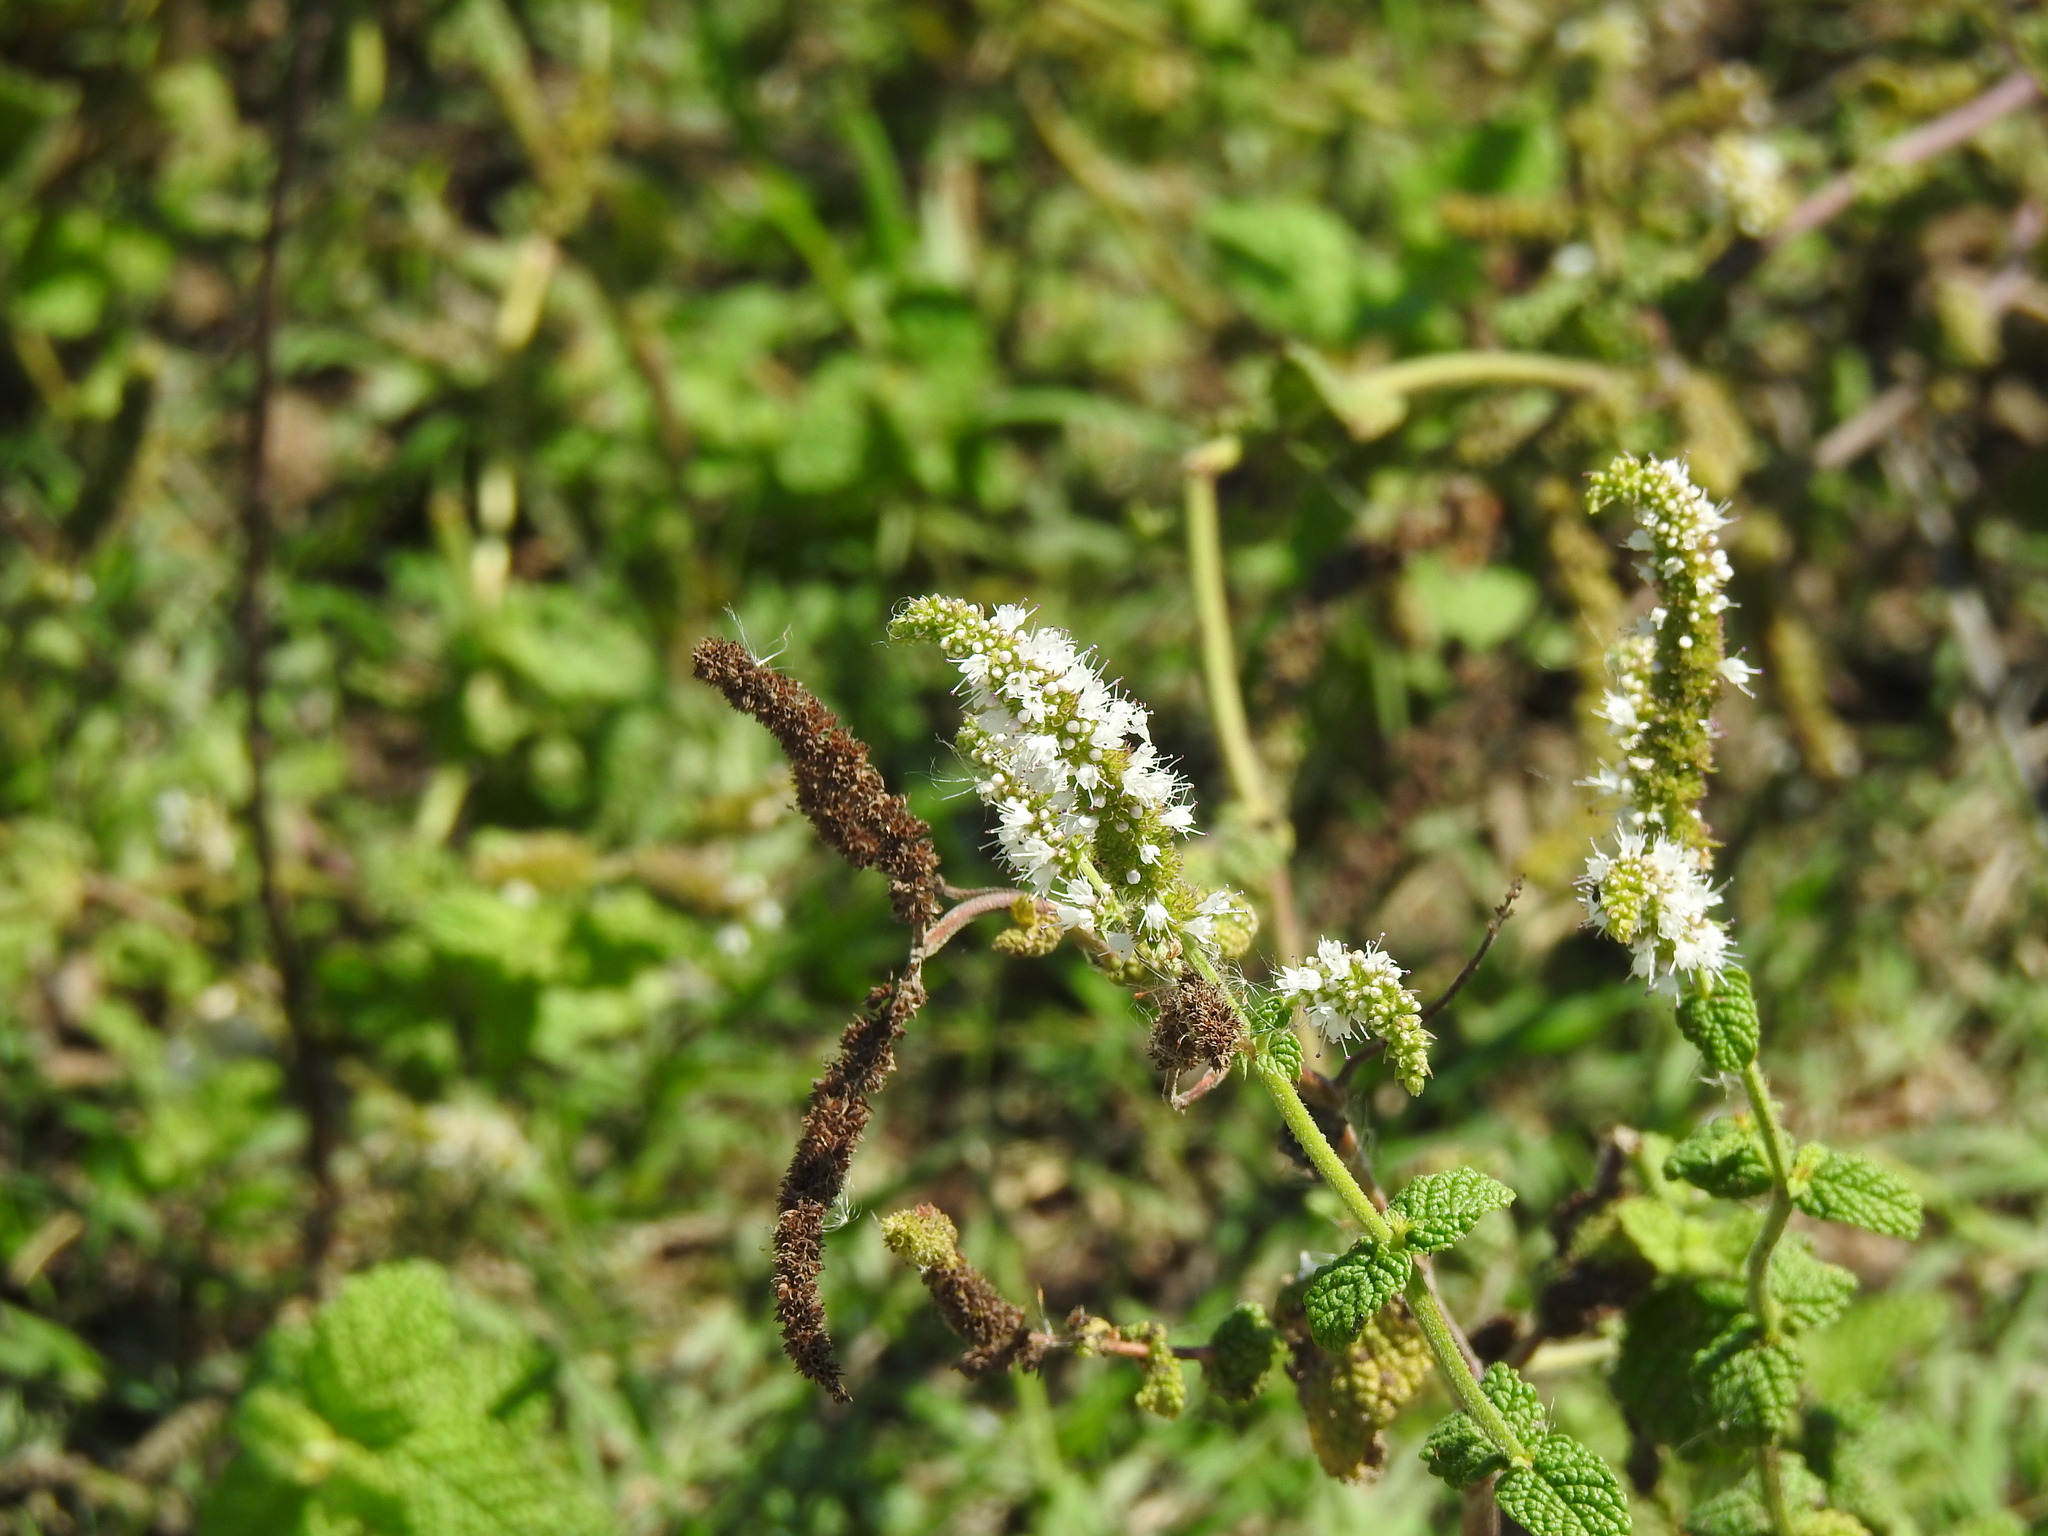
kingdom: Plantae
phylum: Tracheophyta
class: Magnoliopsida
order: Lamiales
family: Lamiaceae
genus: Mentha
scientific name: Mentha suaveolens
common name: Apple mint
